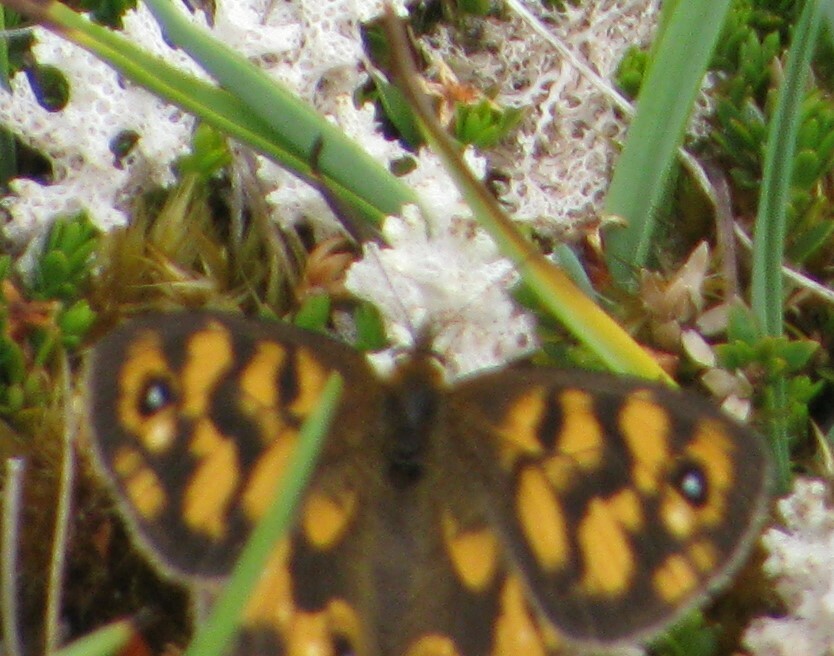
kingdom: Animalia
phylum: Arthropoda
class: Insecta
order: Lepidoptera
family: Nymphalidae
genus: Heteronympha
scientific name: Heteronympha cordace
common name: Bright-eyed brown
